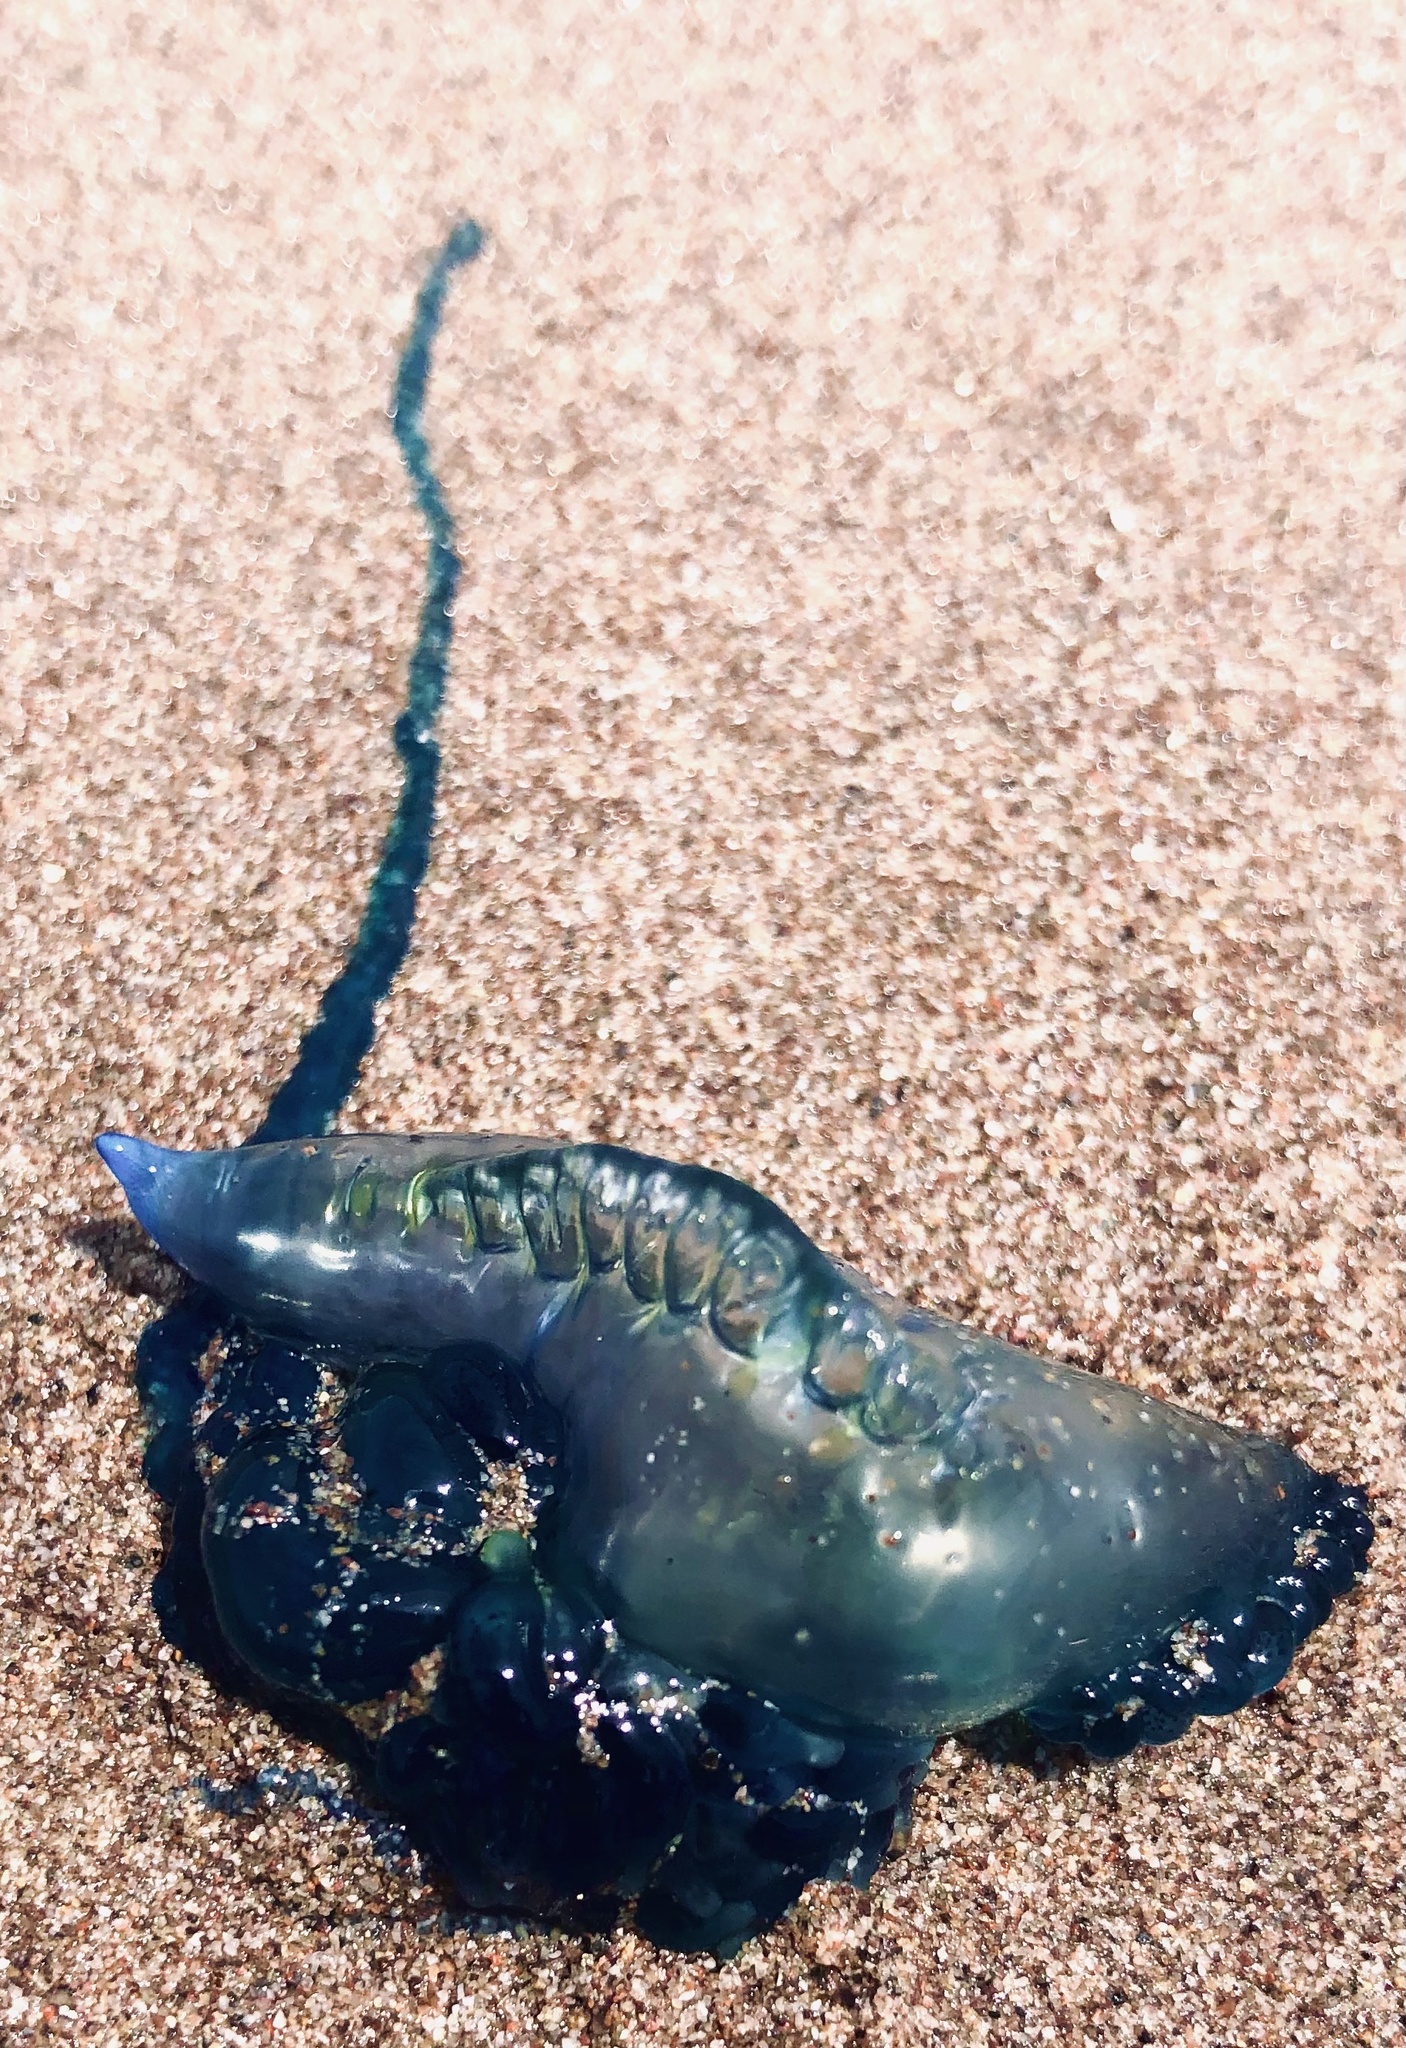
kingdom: Animalia
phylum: Cnidaria
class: Hydrozoa
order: Siphonophorae
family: Physaliidae
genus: Physalia
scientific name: Physalia physalis
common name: Portuguese man-of-war
